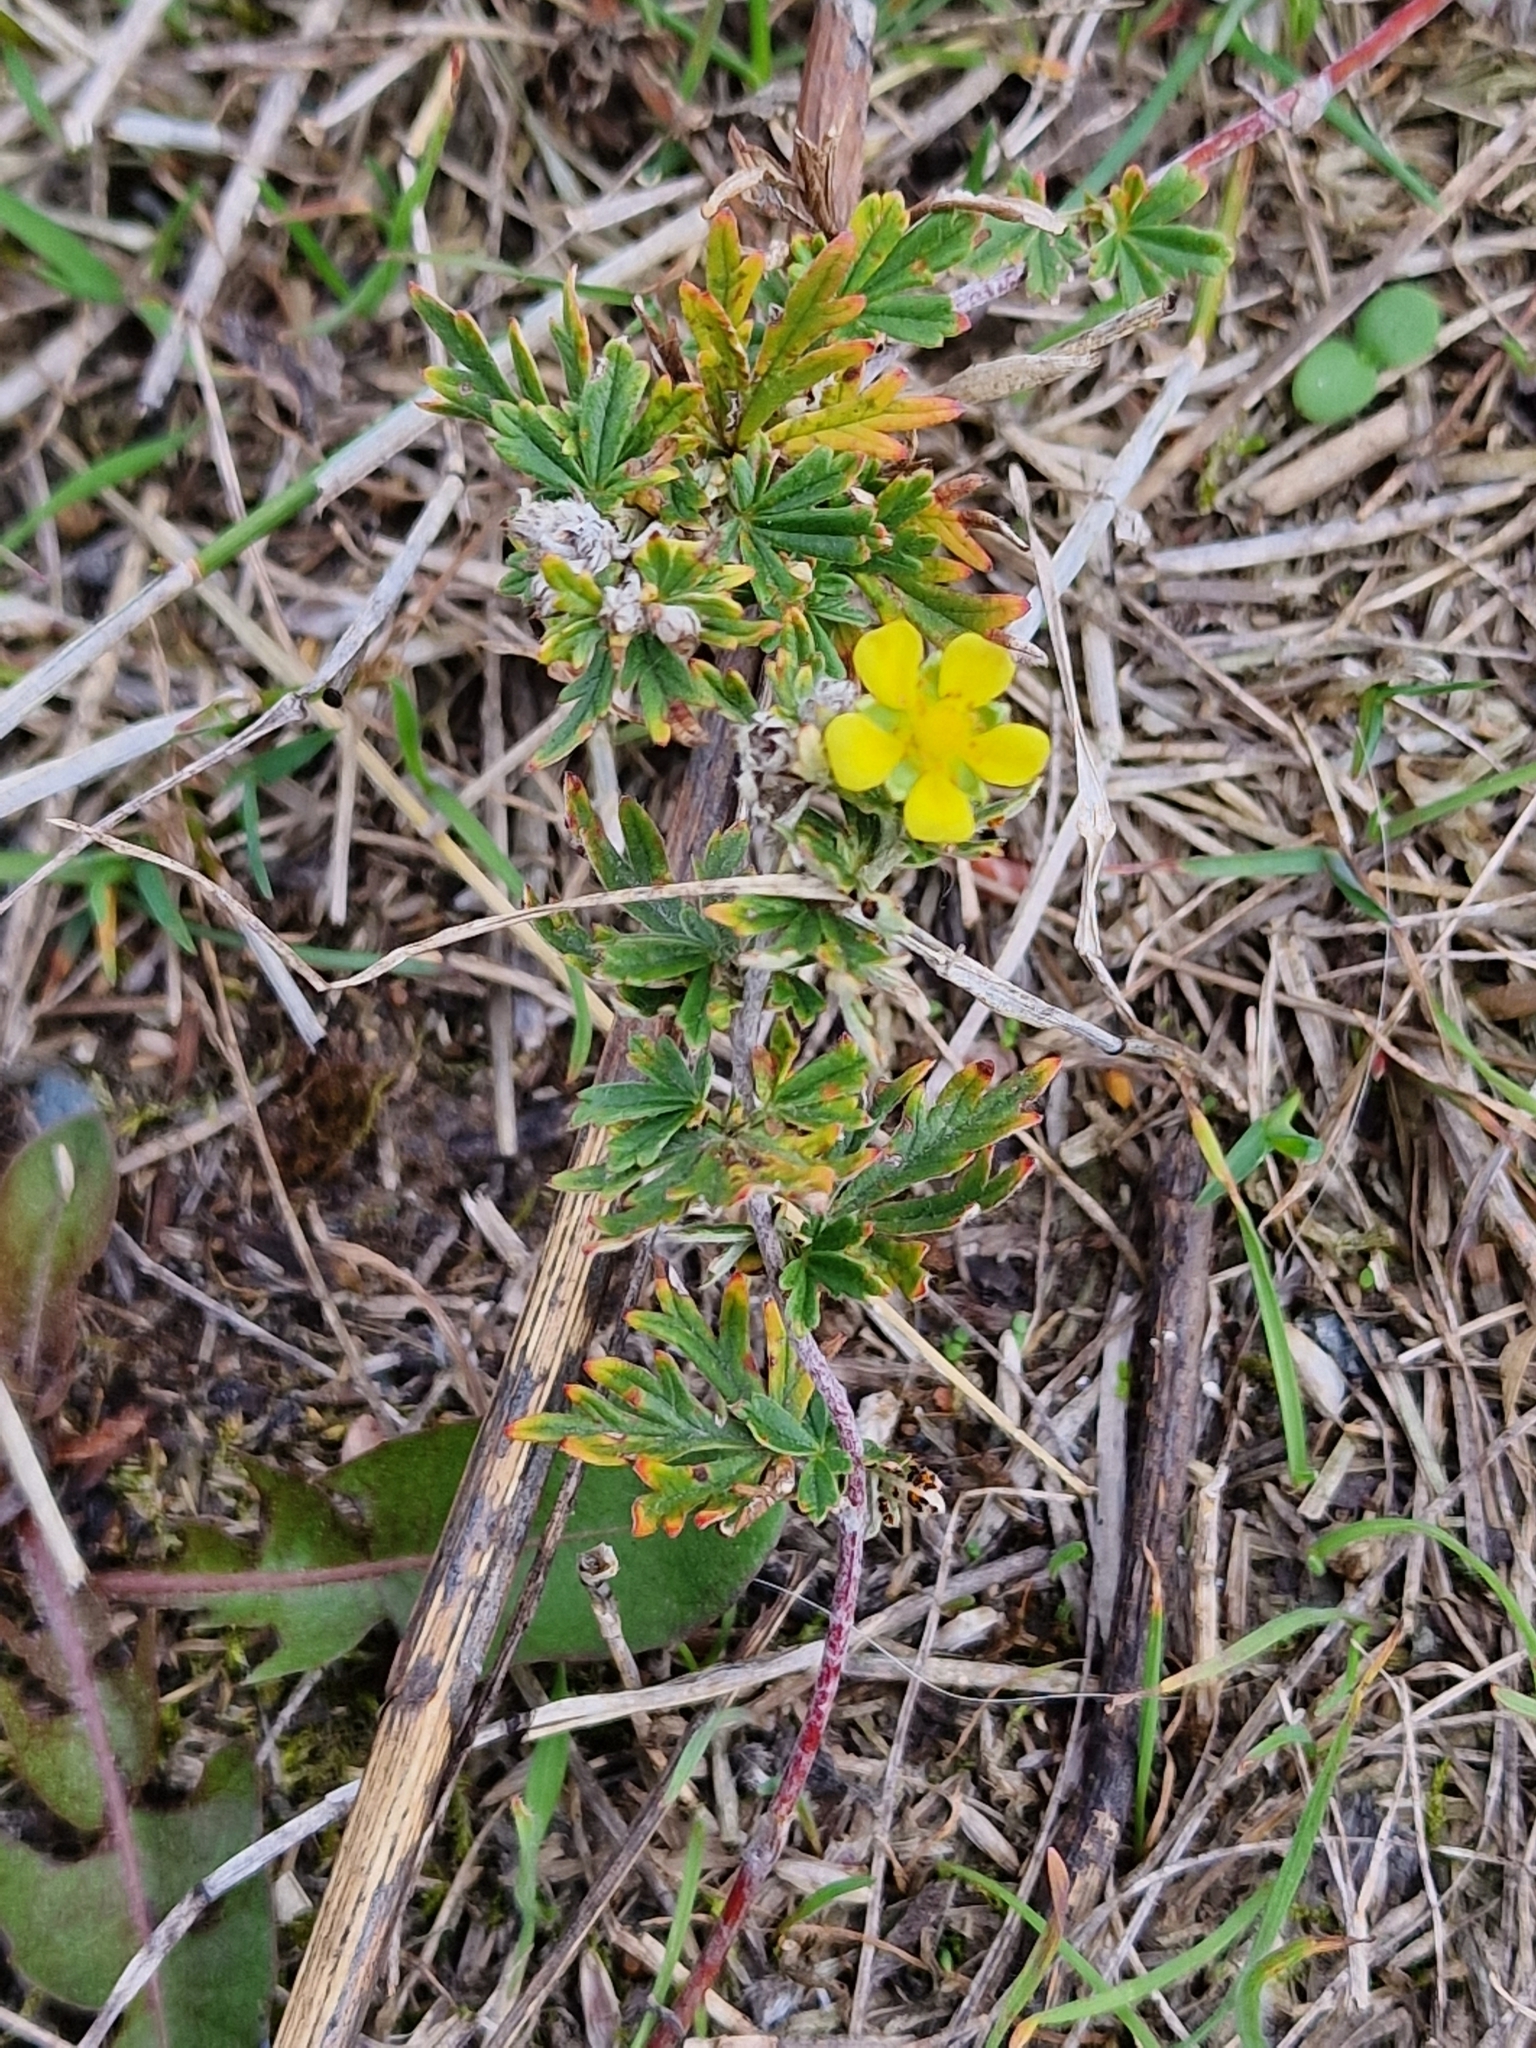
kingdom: Plantae
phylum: Tracheophyta
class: Magnoliopsida
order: Rosales
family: Rosaceae
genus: Potentilla
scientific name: Potentilla argentea
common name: Hoary cinquefoil
